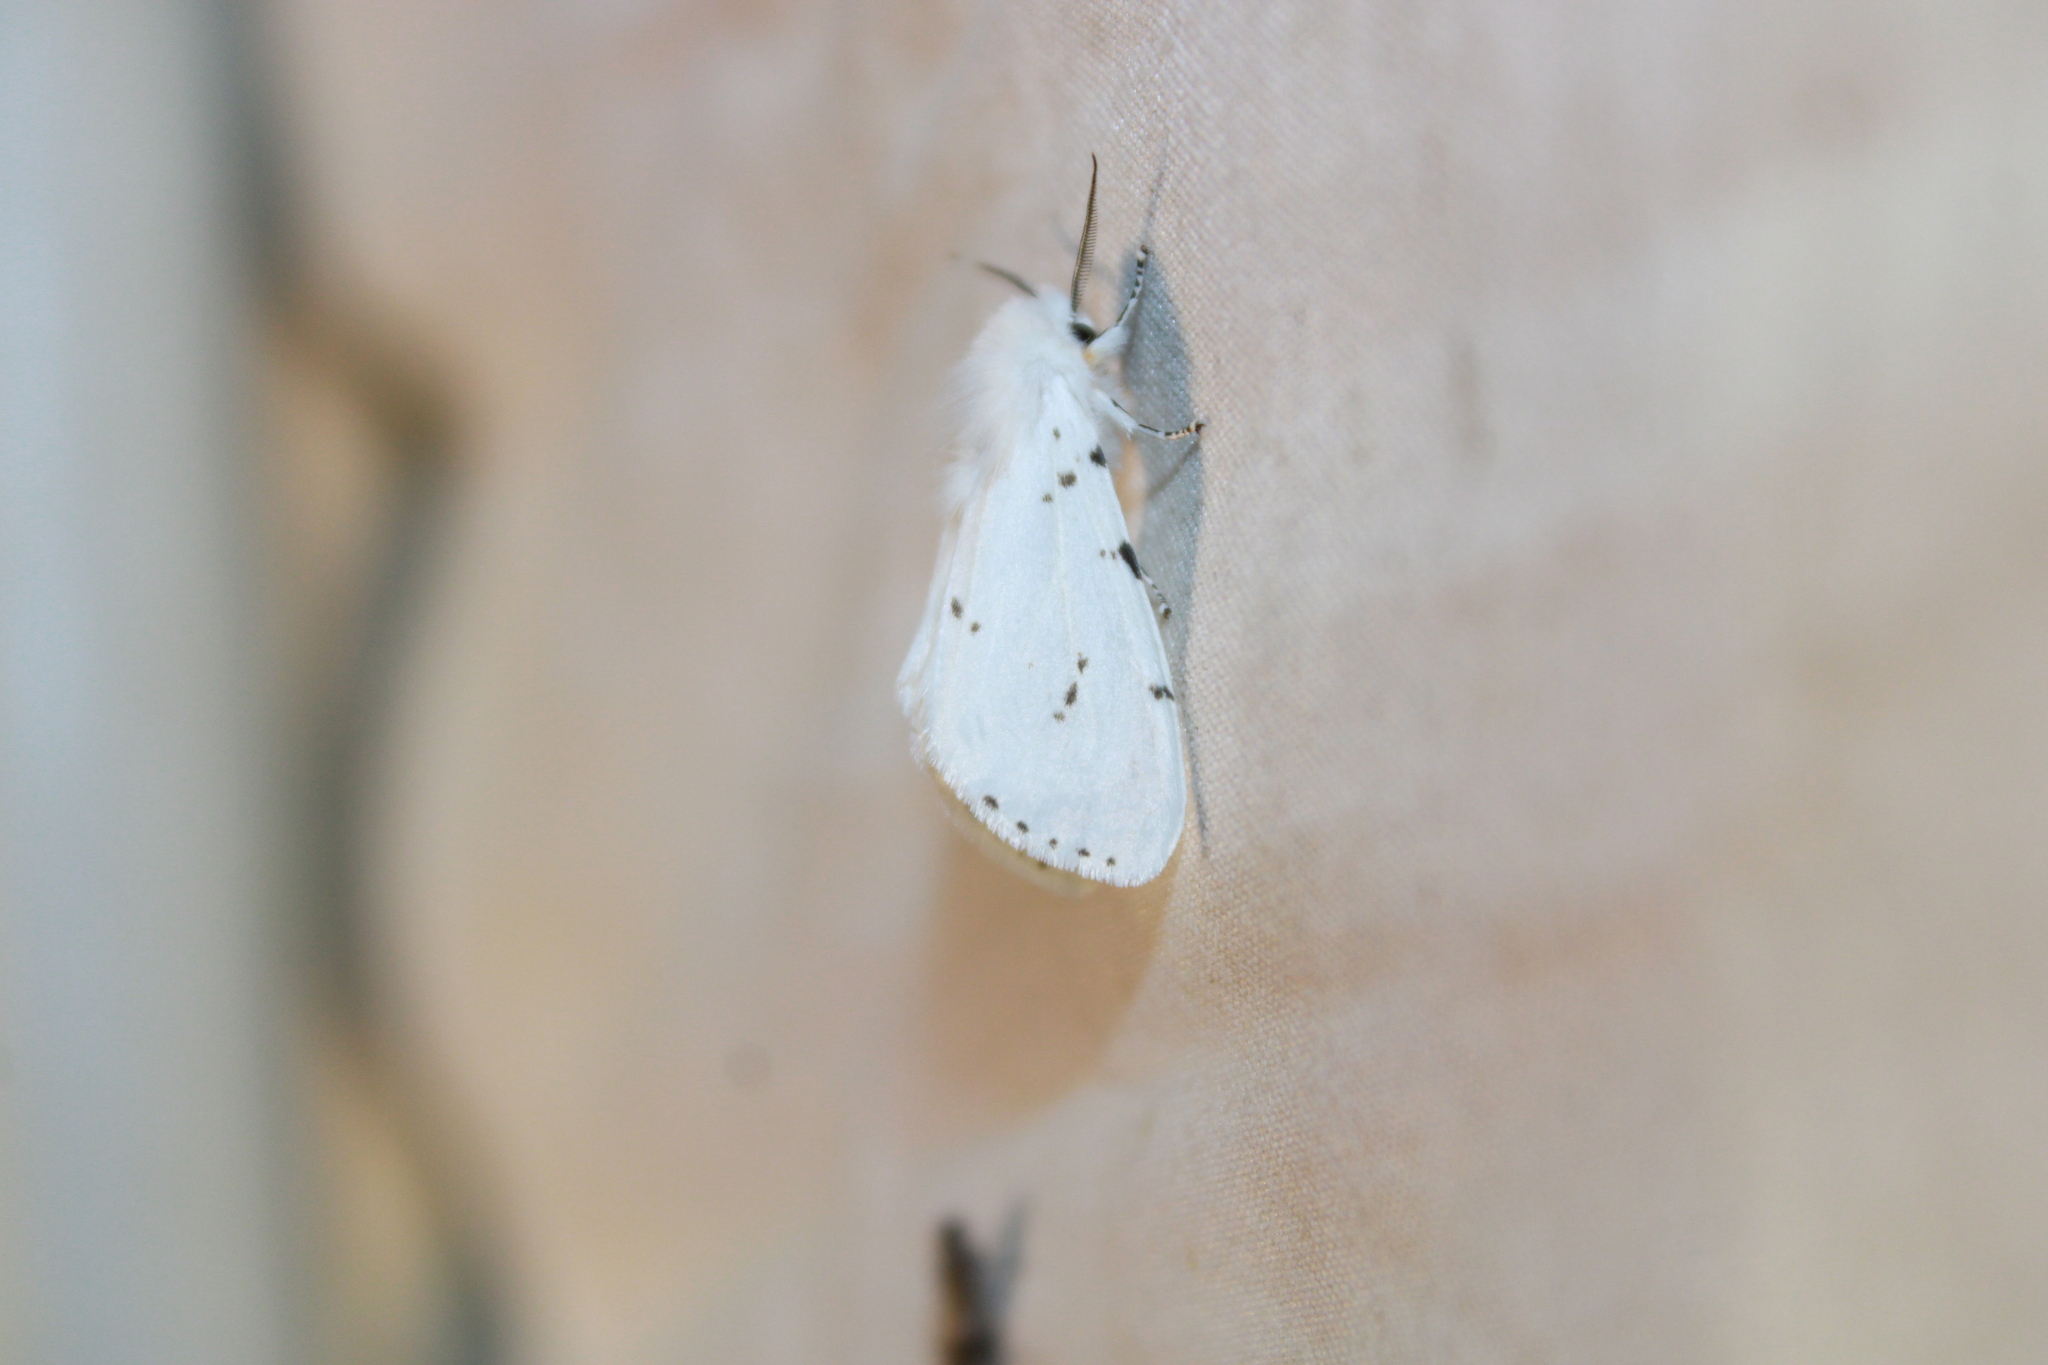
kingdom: Animalia
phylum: Arthropoda
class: Insecta
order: Lepidoptera
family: Erebidae
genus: Hyphantria
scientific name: Hyphantria cunea
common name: American white moth
